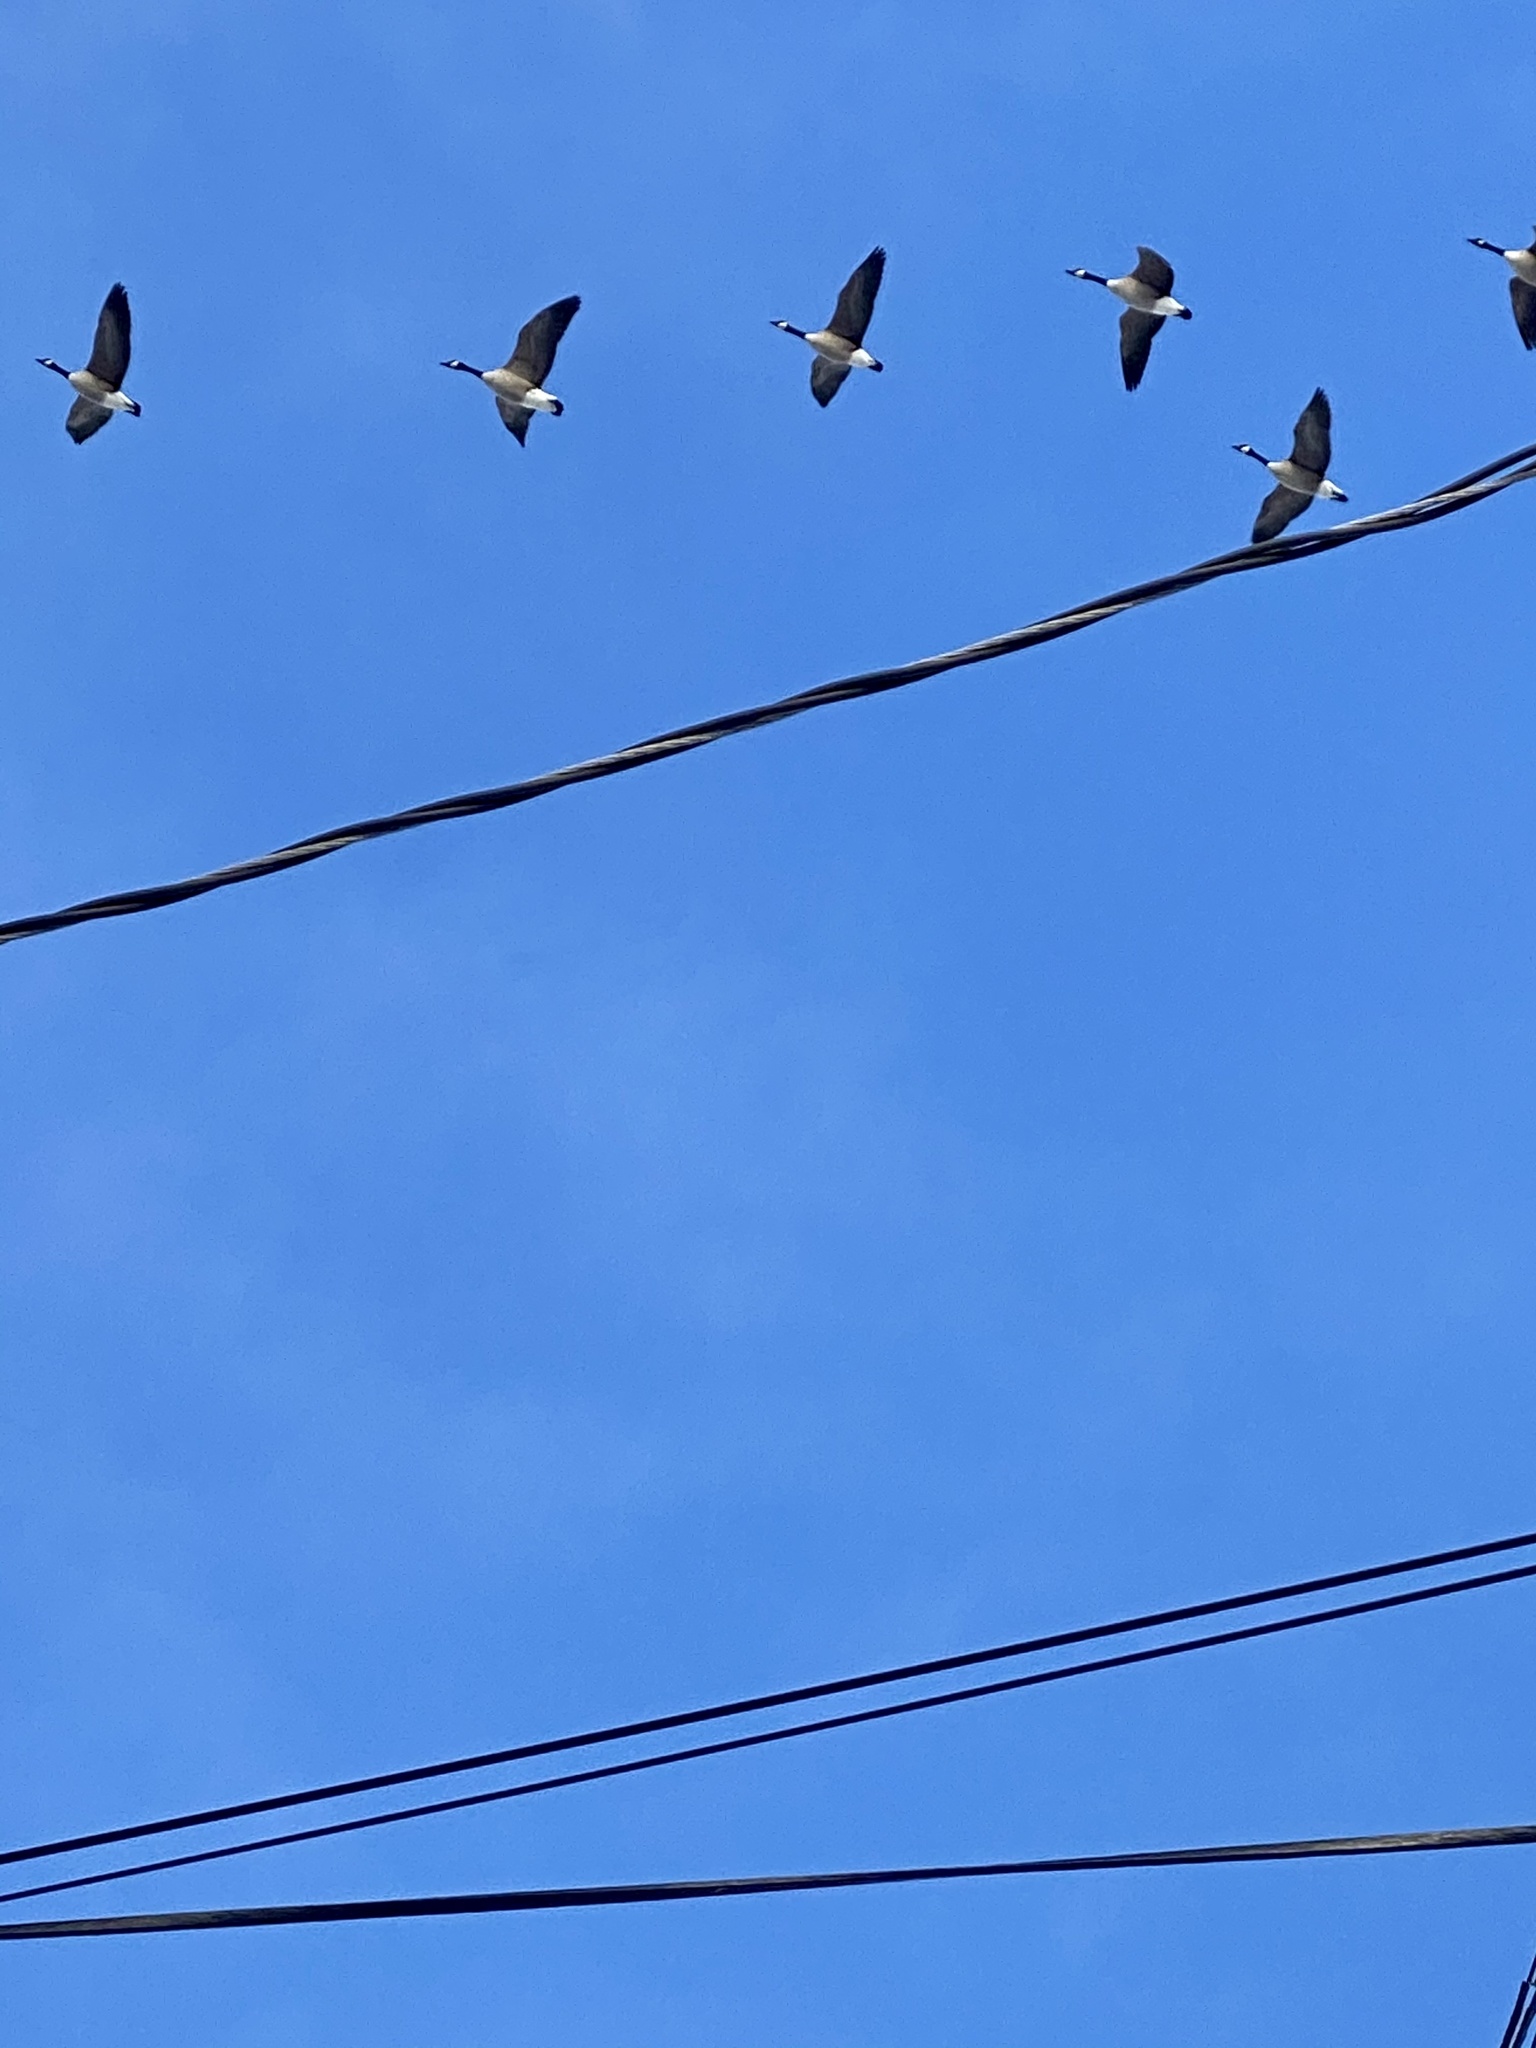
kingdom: Animalia
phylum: Chordata
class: Aves
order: Anseriformes
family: Anatidae
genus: Branta
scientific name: Branta canadensis
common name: Canada goose
